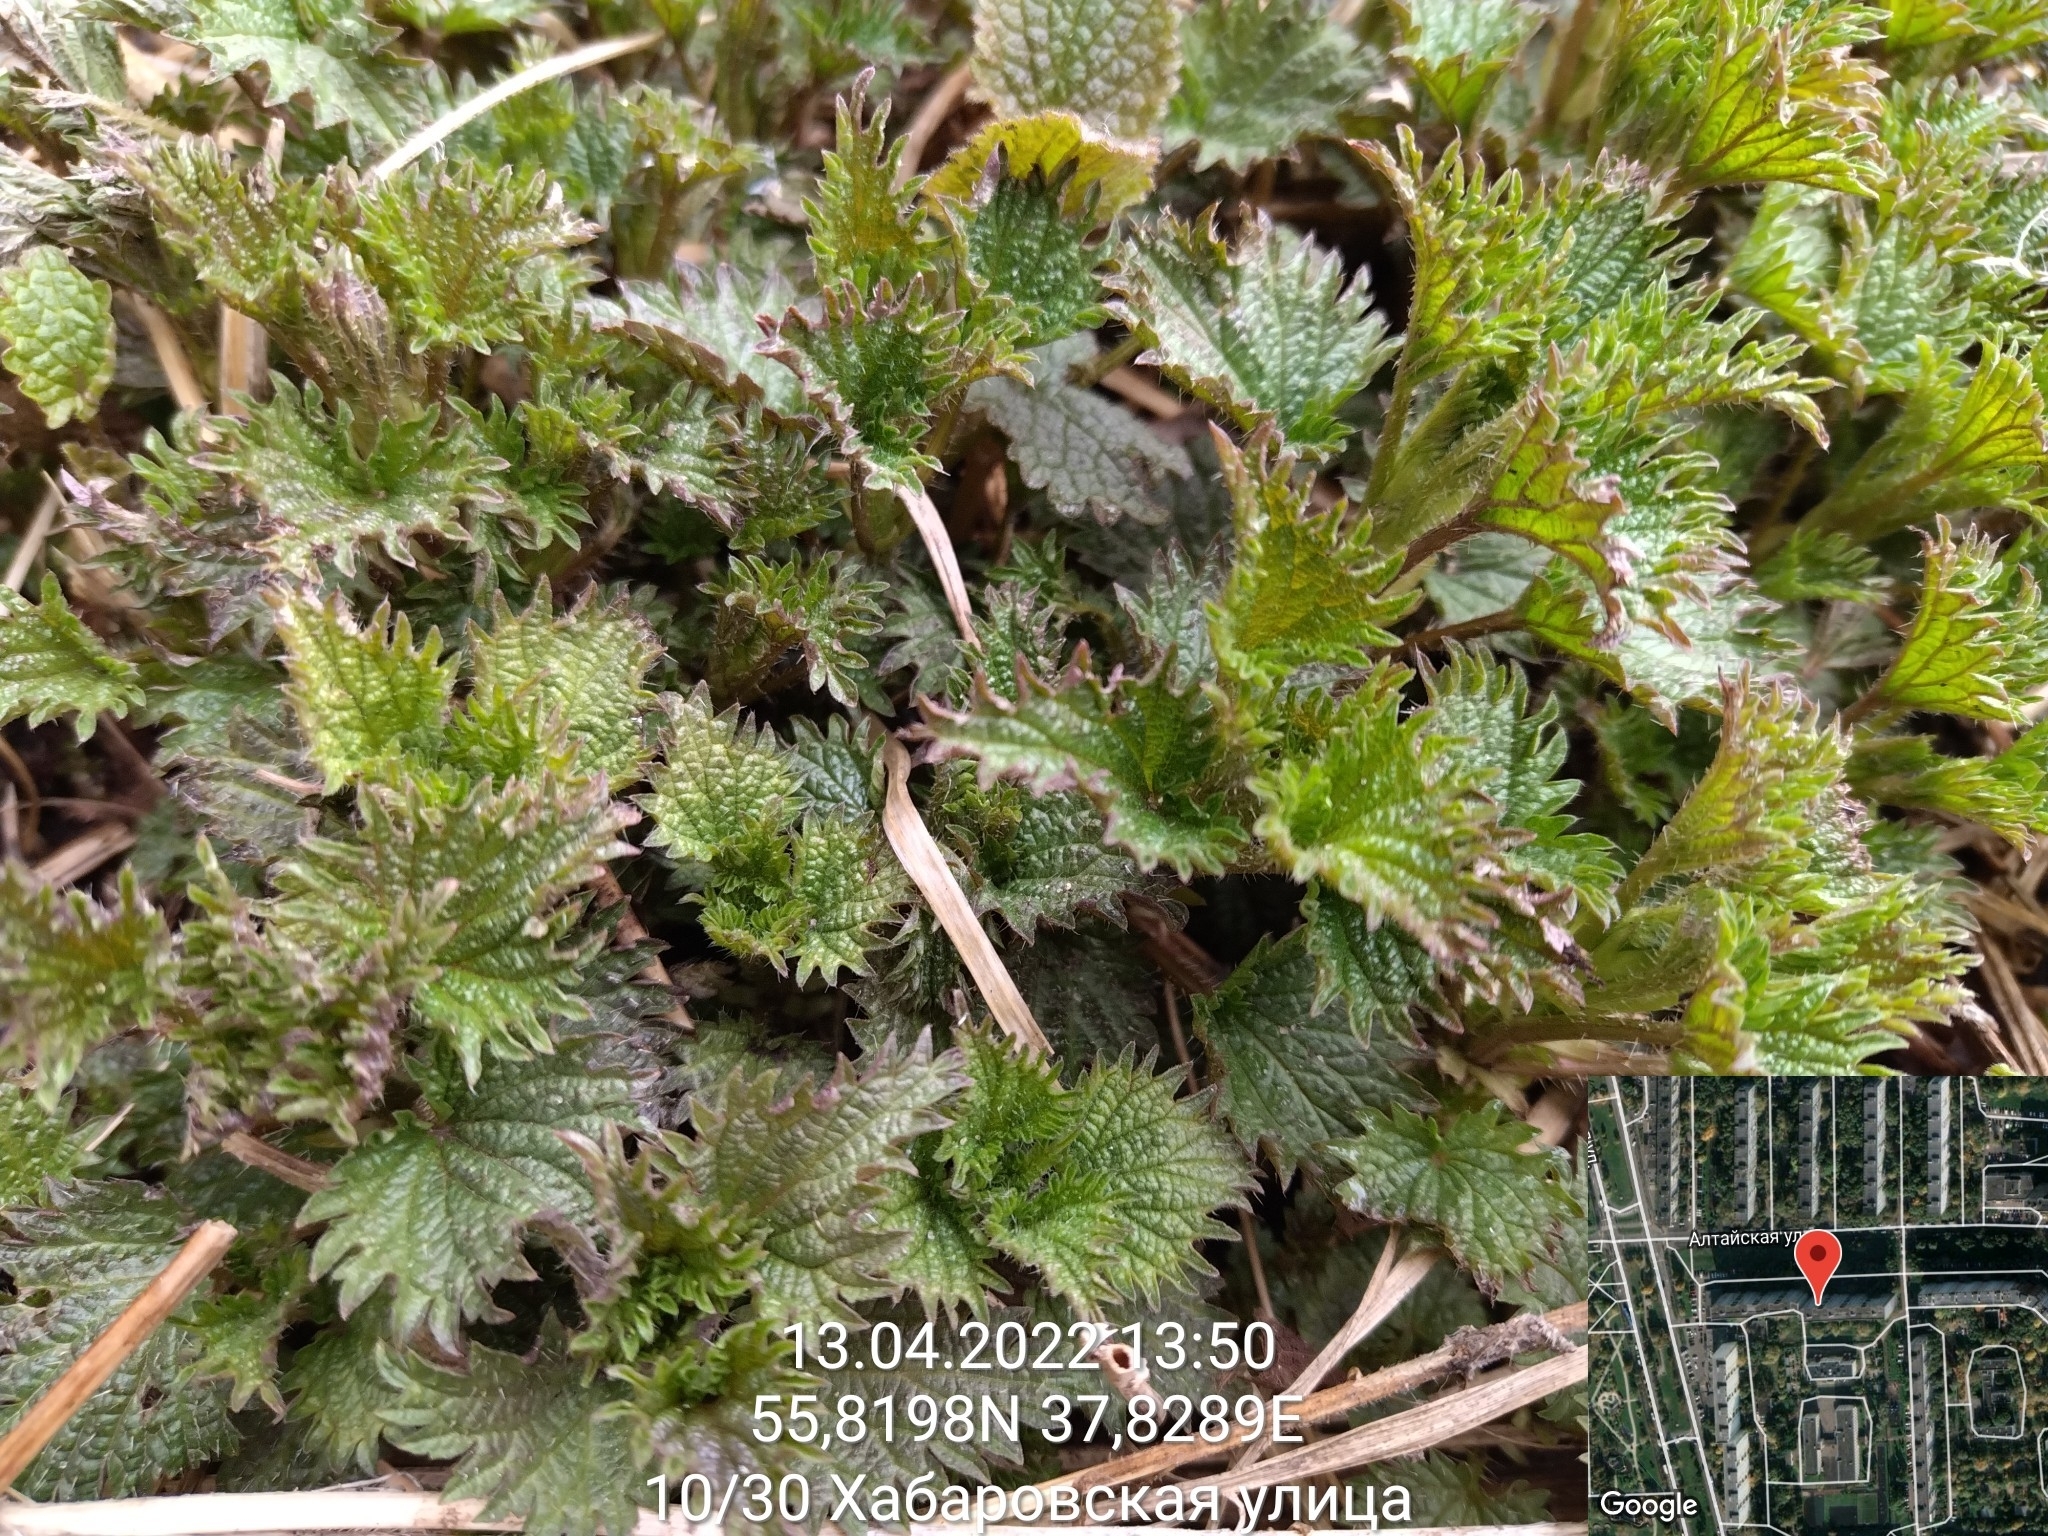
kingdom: Plantae
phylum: Tracheophyta
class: Magnoliopsida
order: Rosales
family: Urticaceae
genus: Urtica
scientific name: Urtica dioica
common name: Common nettle
